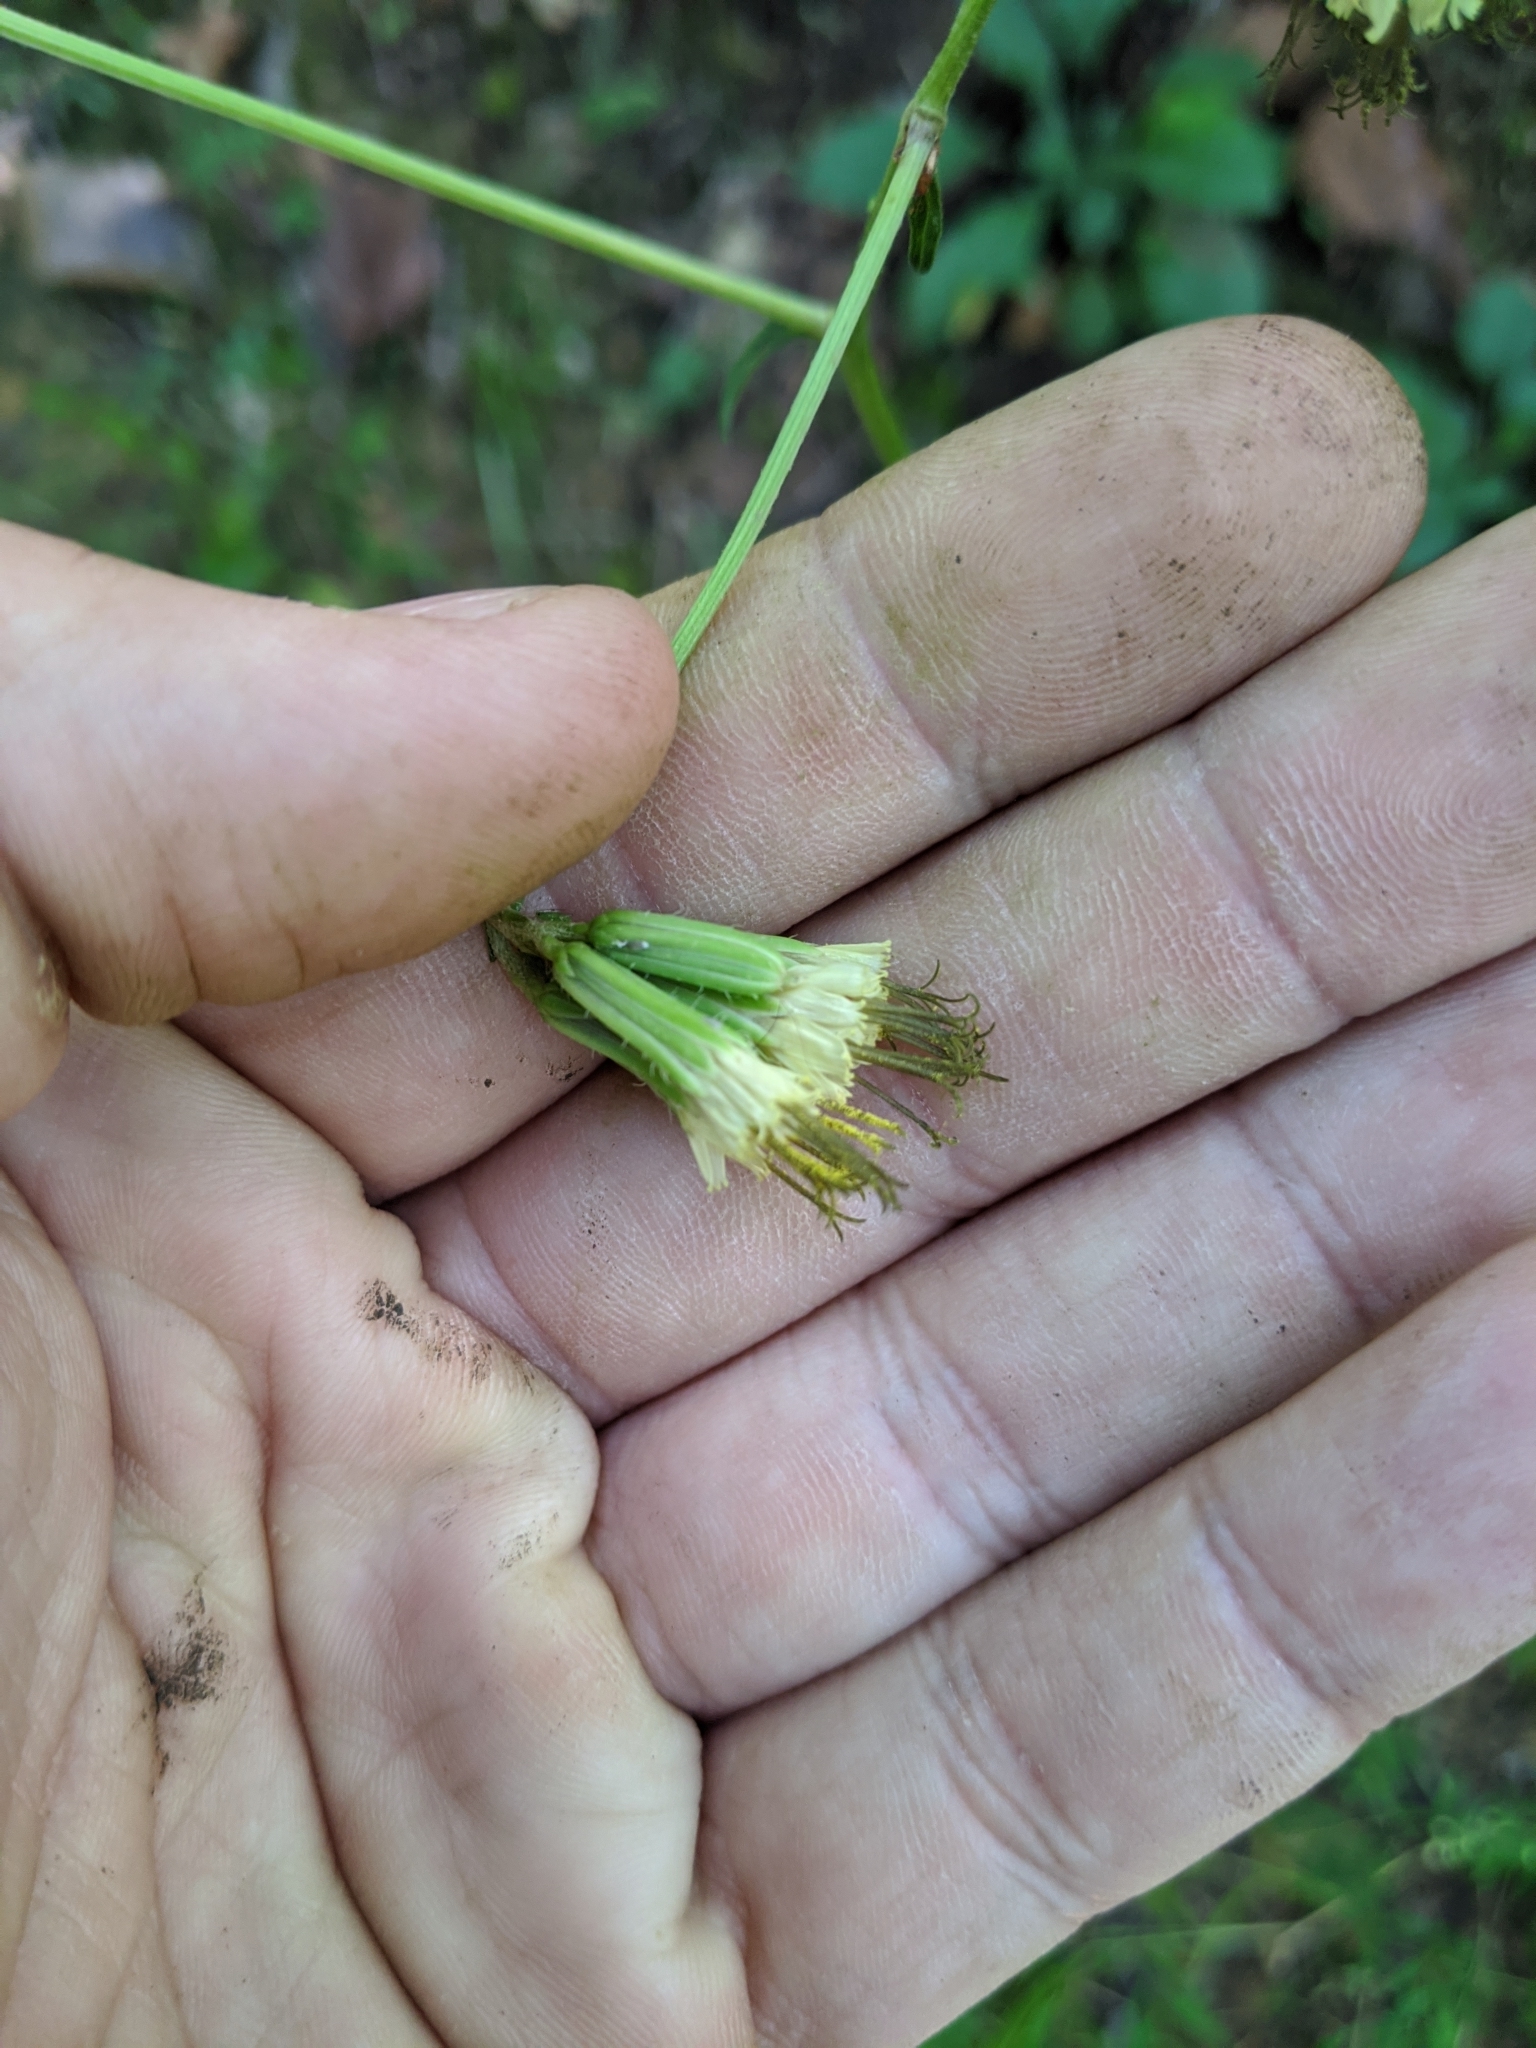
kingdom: Plantae
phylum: Tracheophyta
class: Magnoliopsida
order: Asterales
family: Asteraceae
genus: Nabalus
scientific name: Nabalus serpentarius
